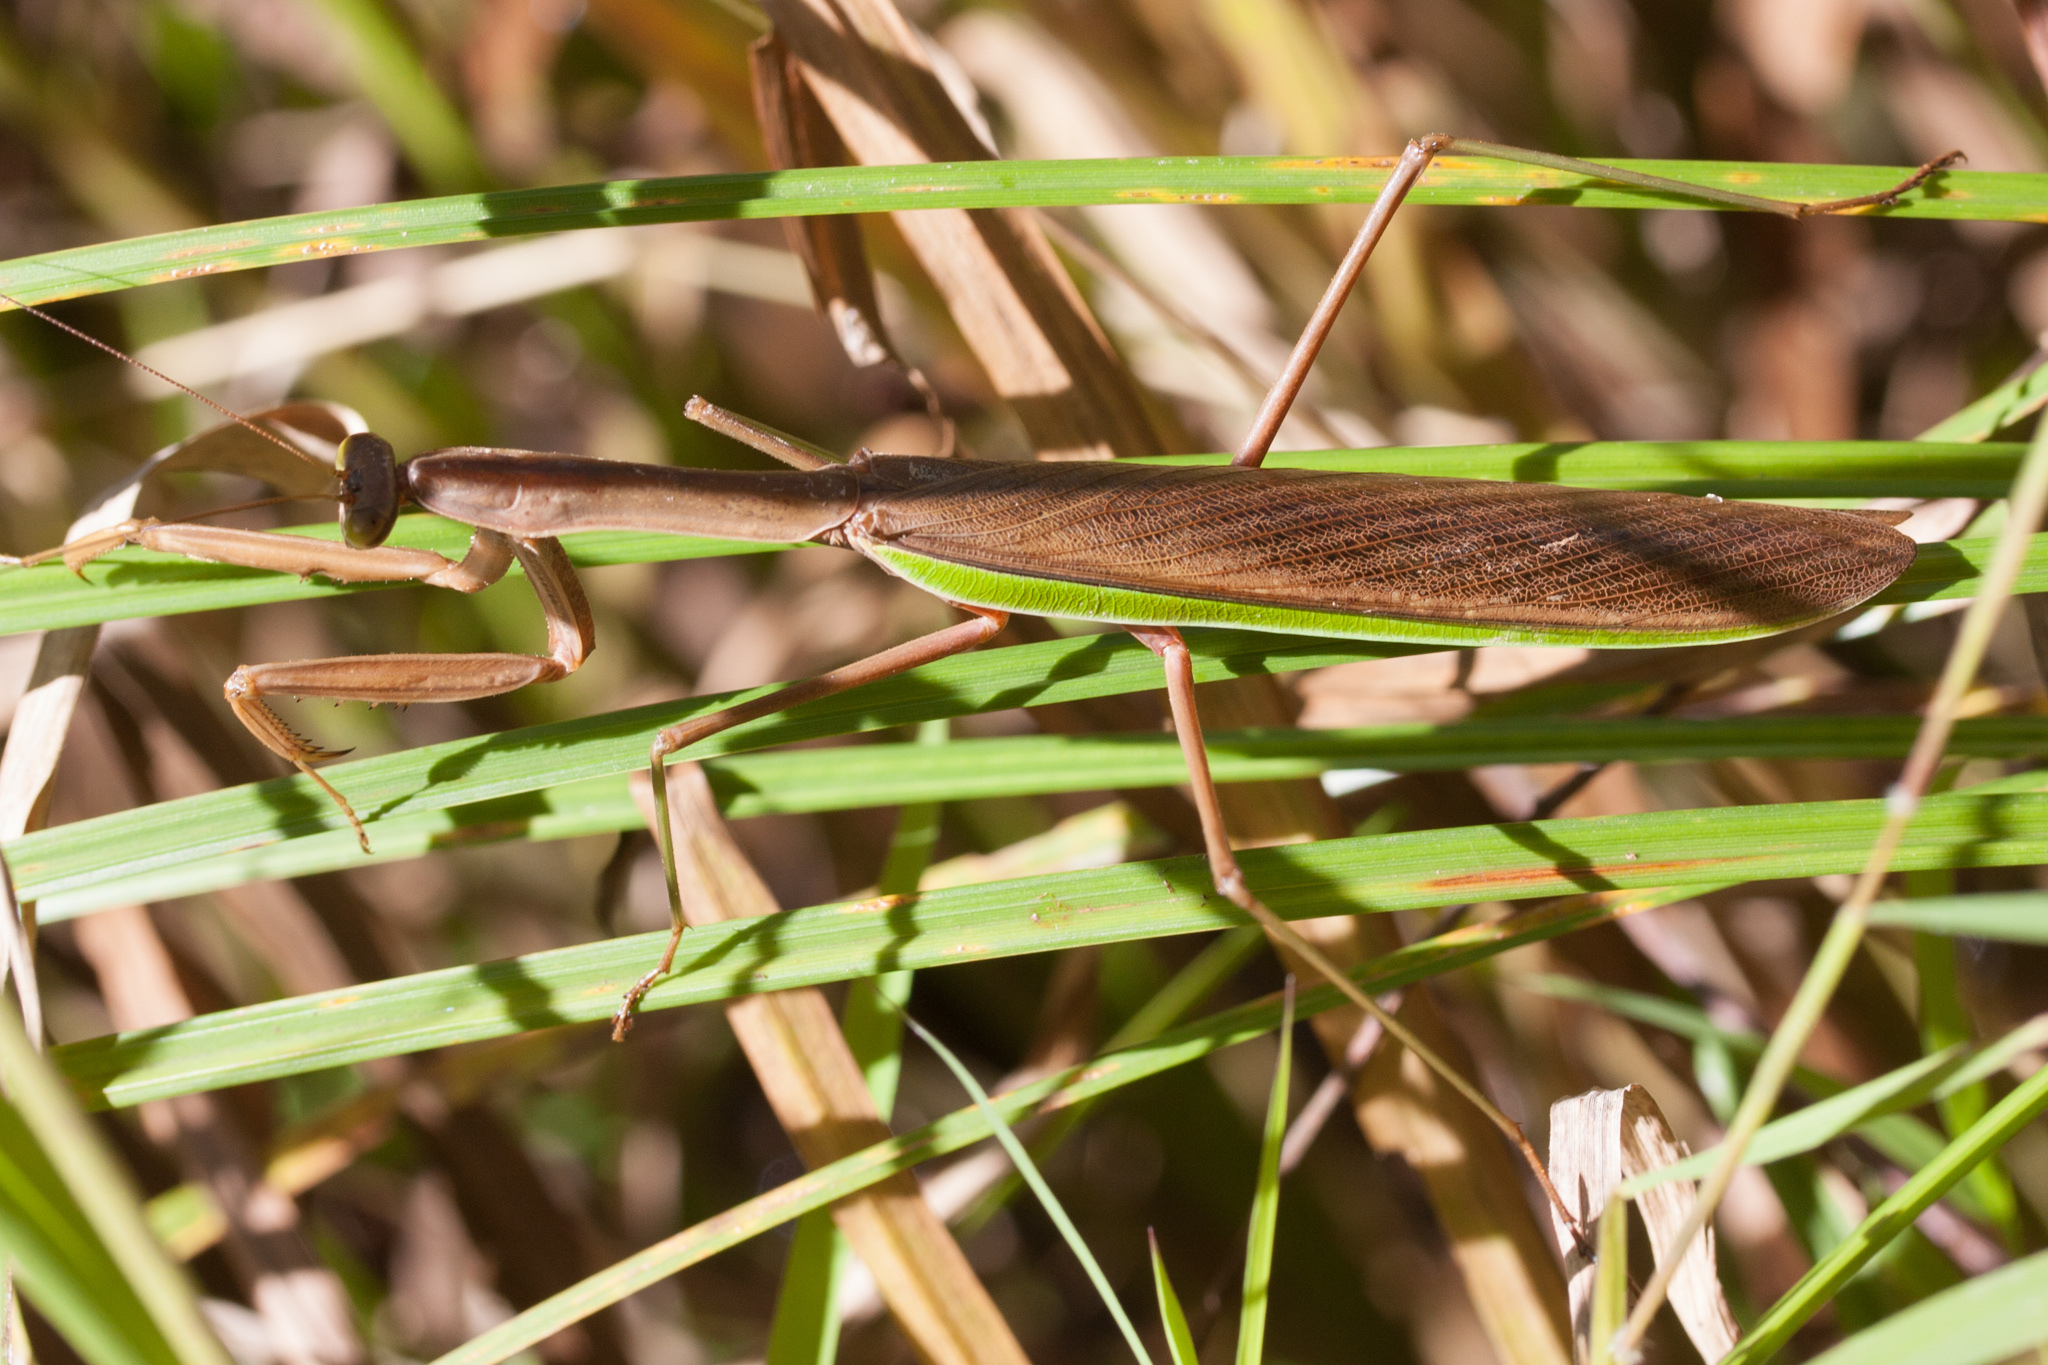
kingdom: Animalia
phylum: Arthropoda
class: Insecta
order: Mantodea
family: Mantidae
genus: Tenodera
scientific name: Tenodera
